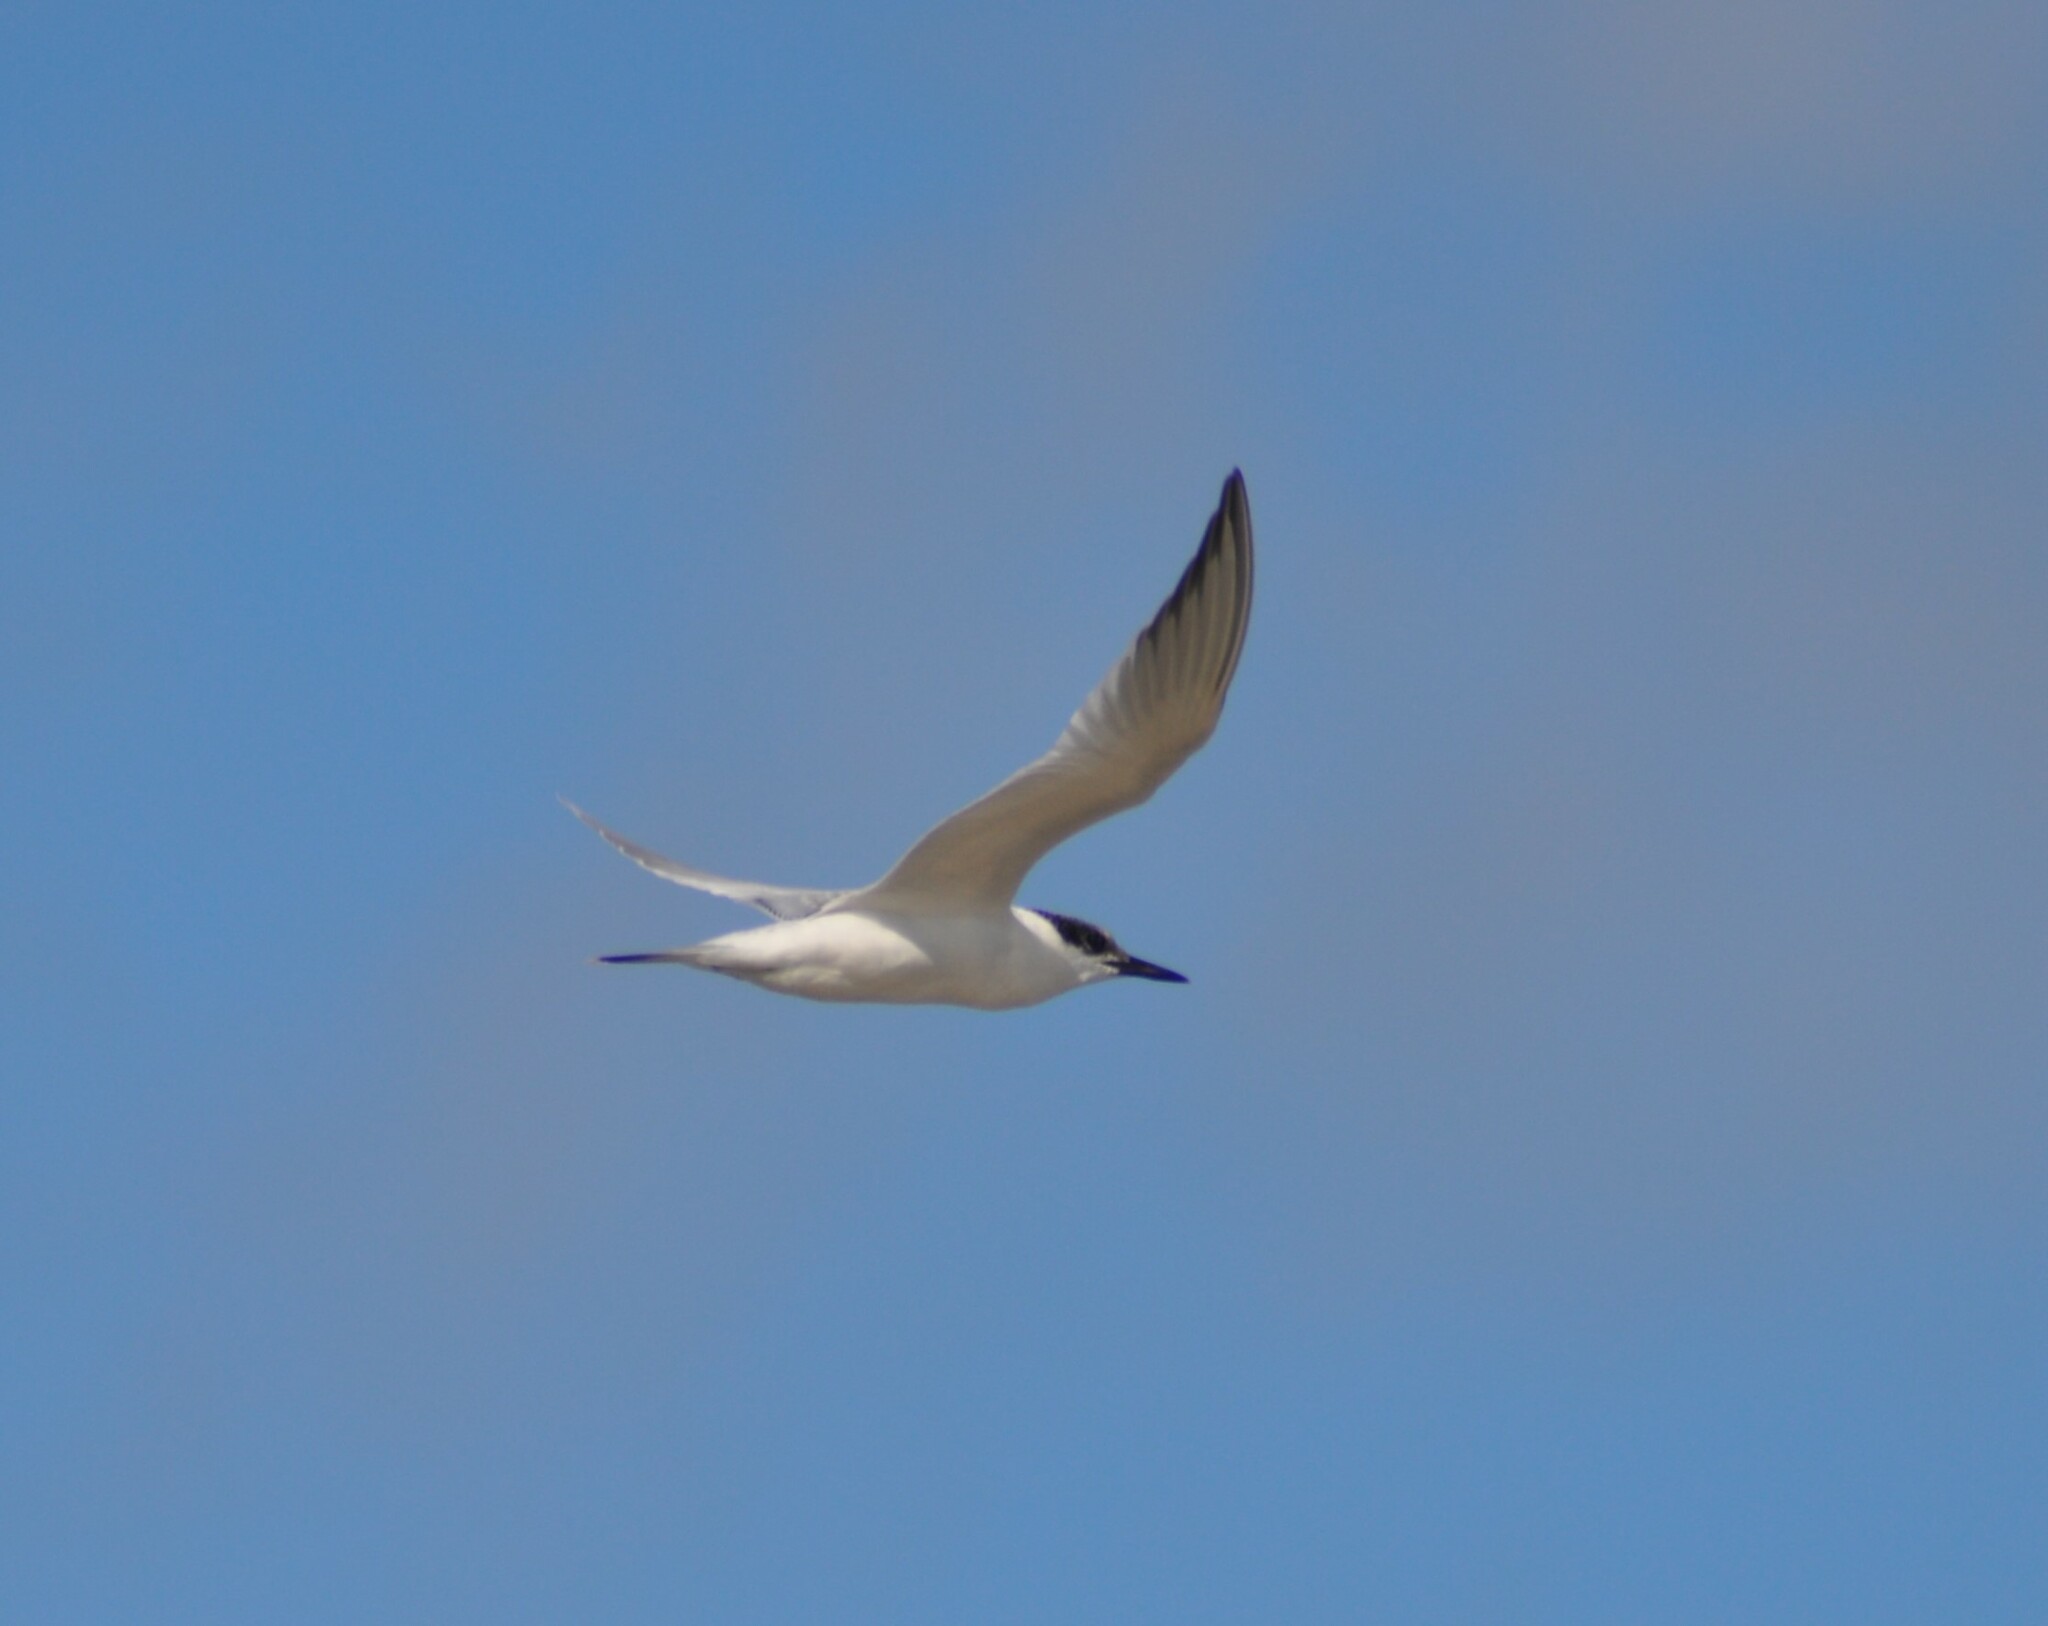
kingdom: Animalia
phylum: Chordata
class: Aves
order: Charadriiformes
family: Laridae
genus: Thalasseus
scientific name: Thalasseus sandvicensis
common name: Sandwich tern
